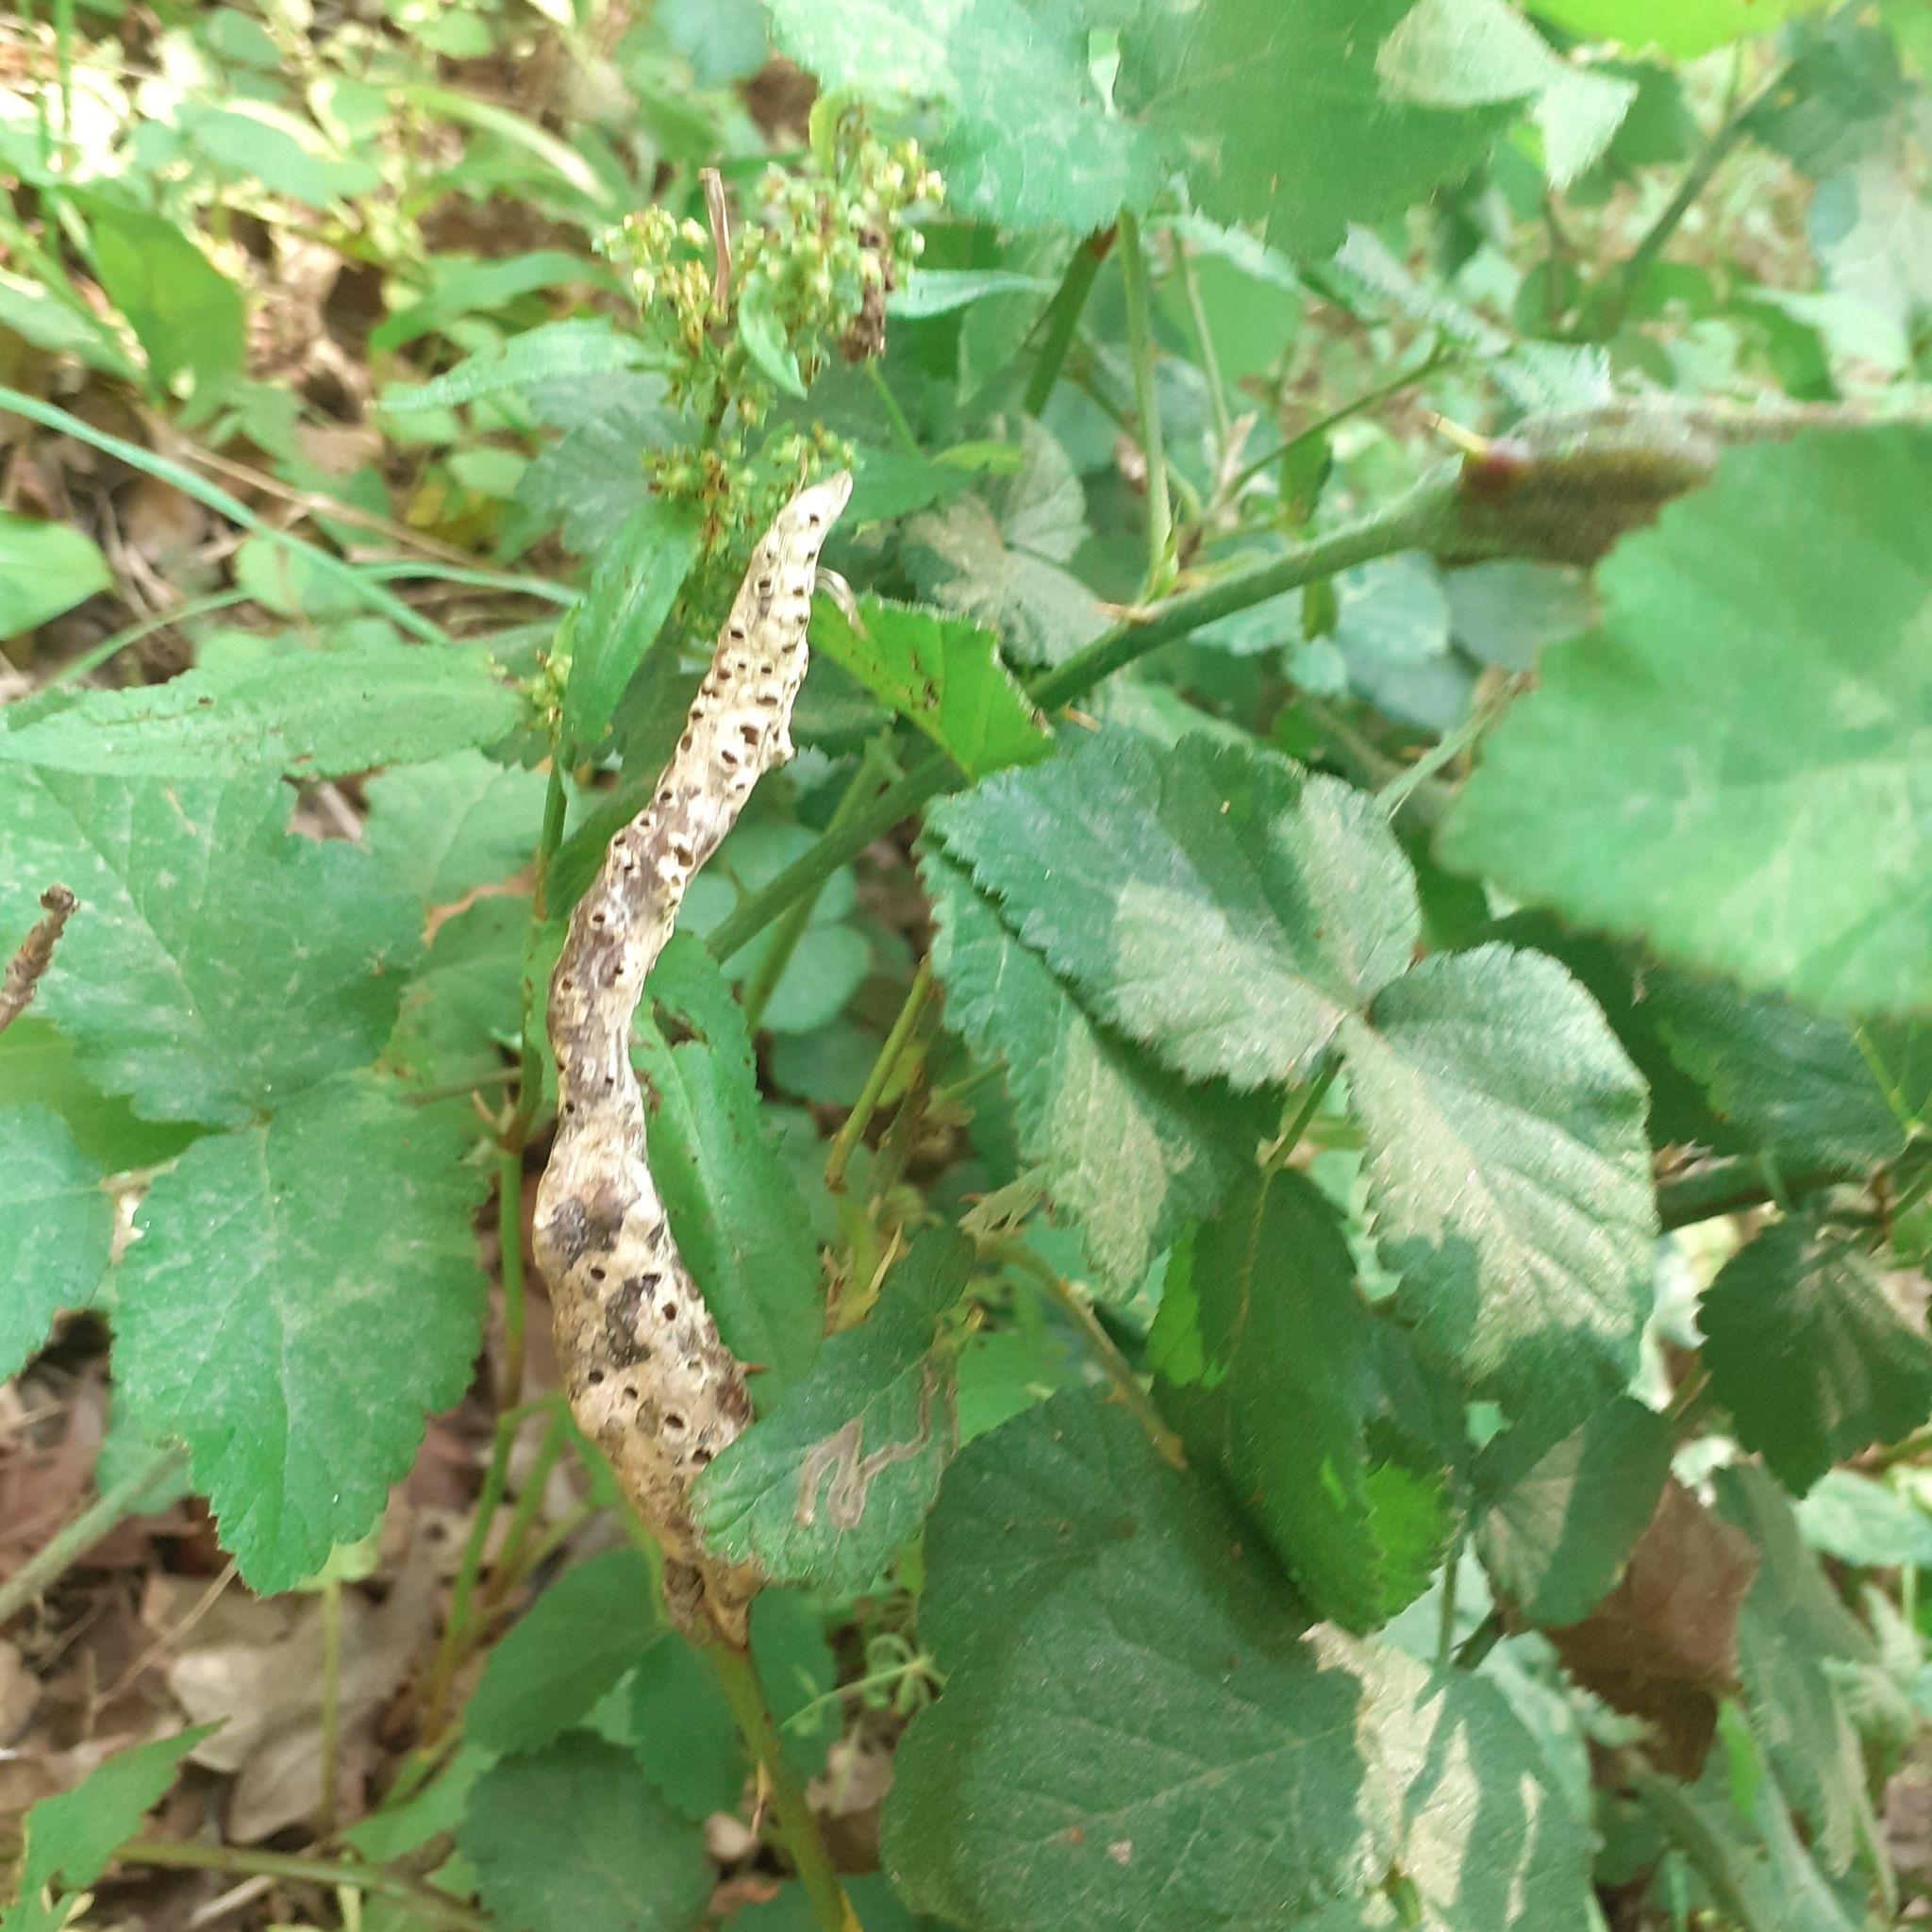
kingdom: Animalia
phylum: Arthropoda
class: Insecta
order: Hymenoptera
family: Cynipidae
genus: Diastrophus
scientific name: Diastrophus rubi
